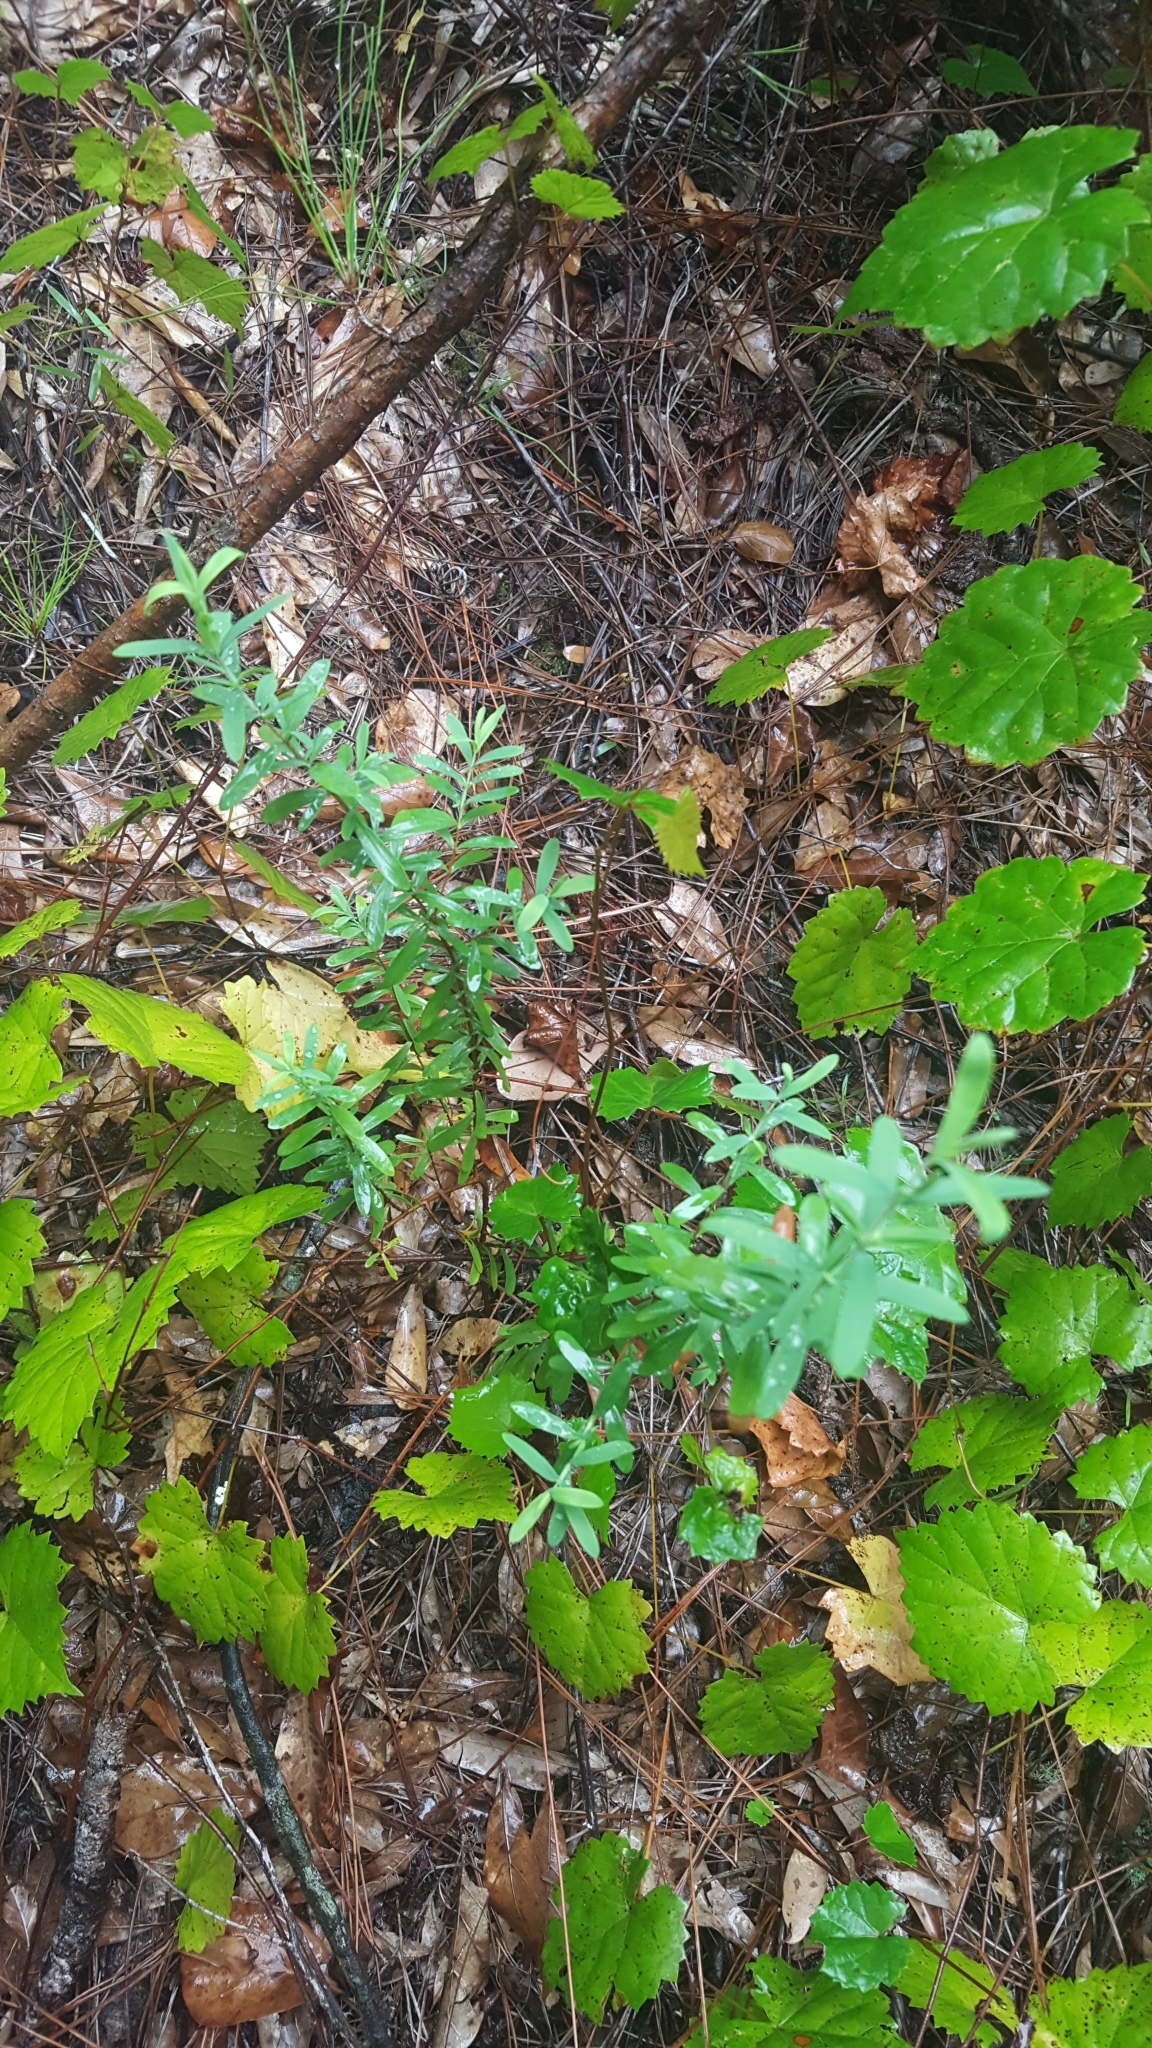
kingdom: Plantae
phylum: Tracheophyta
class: Magnoliopsida
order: Malpighiales
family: Hypericaceae
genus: Hypericum
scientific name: Hypericum hypericoides
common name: St. andrew's cross
